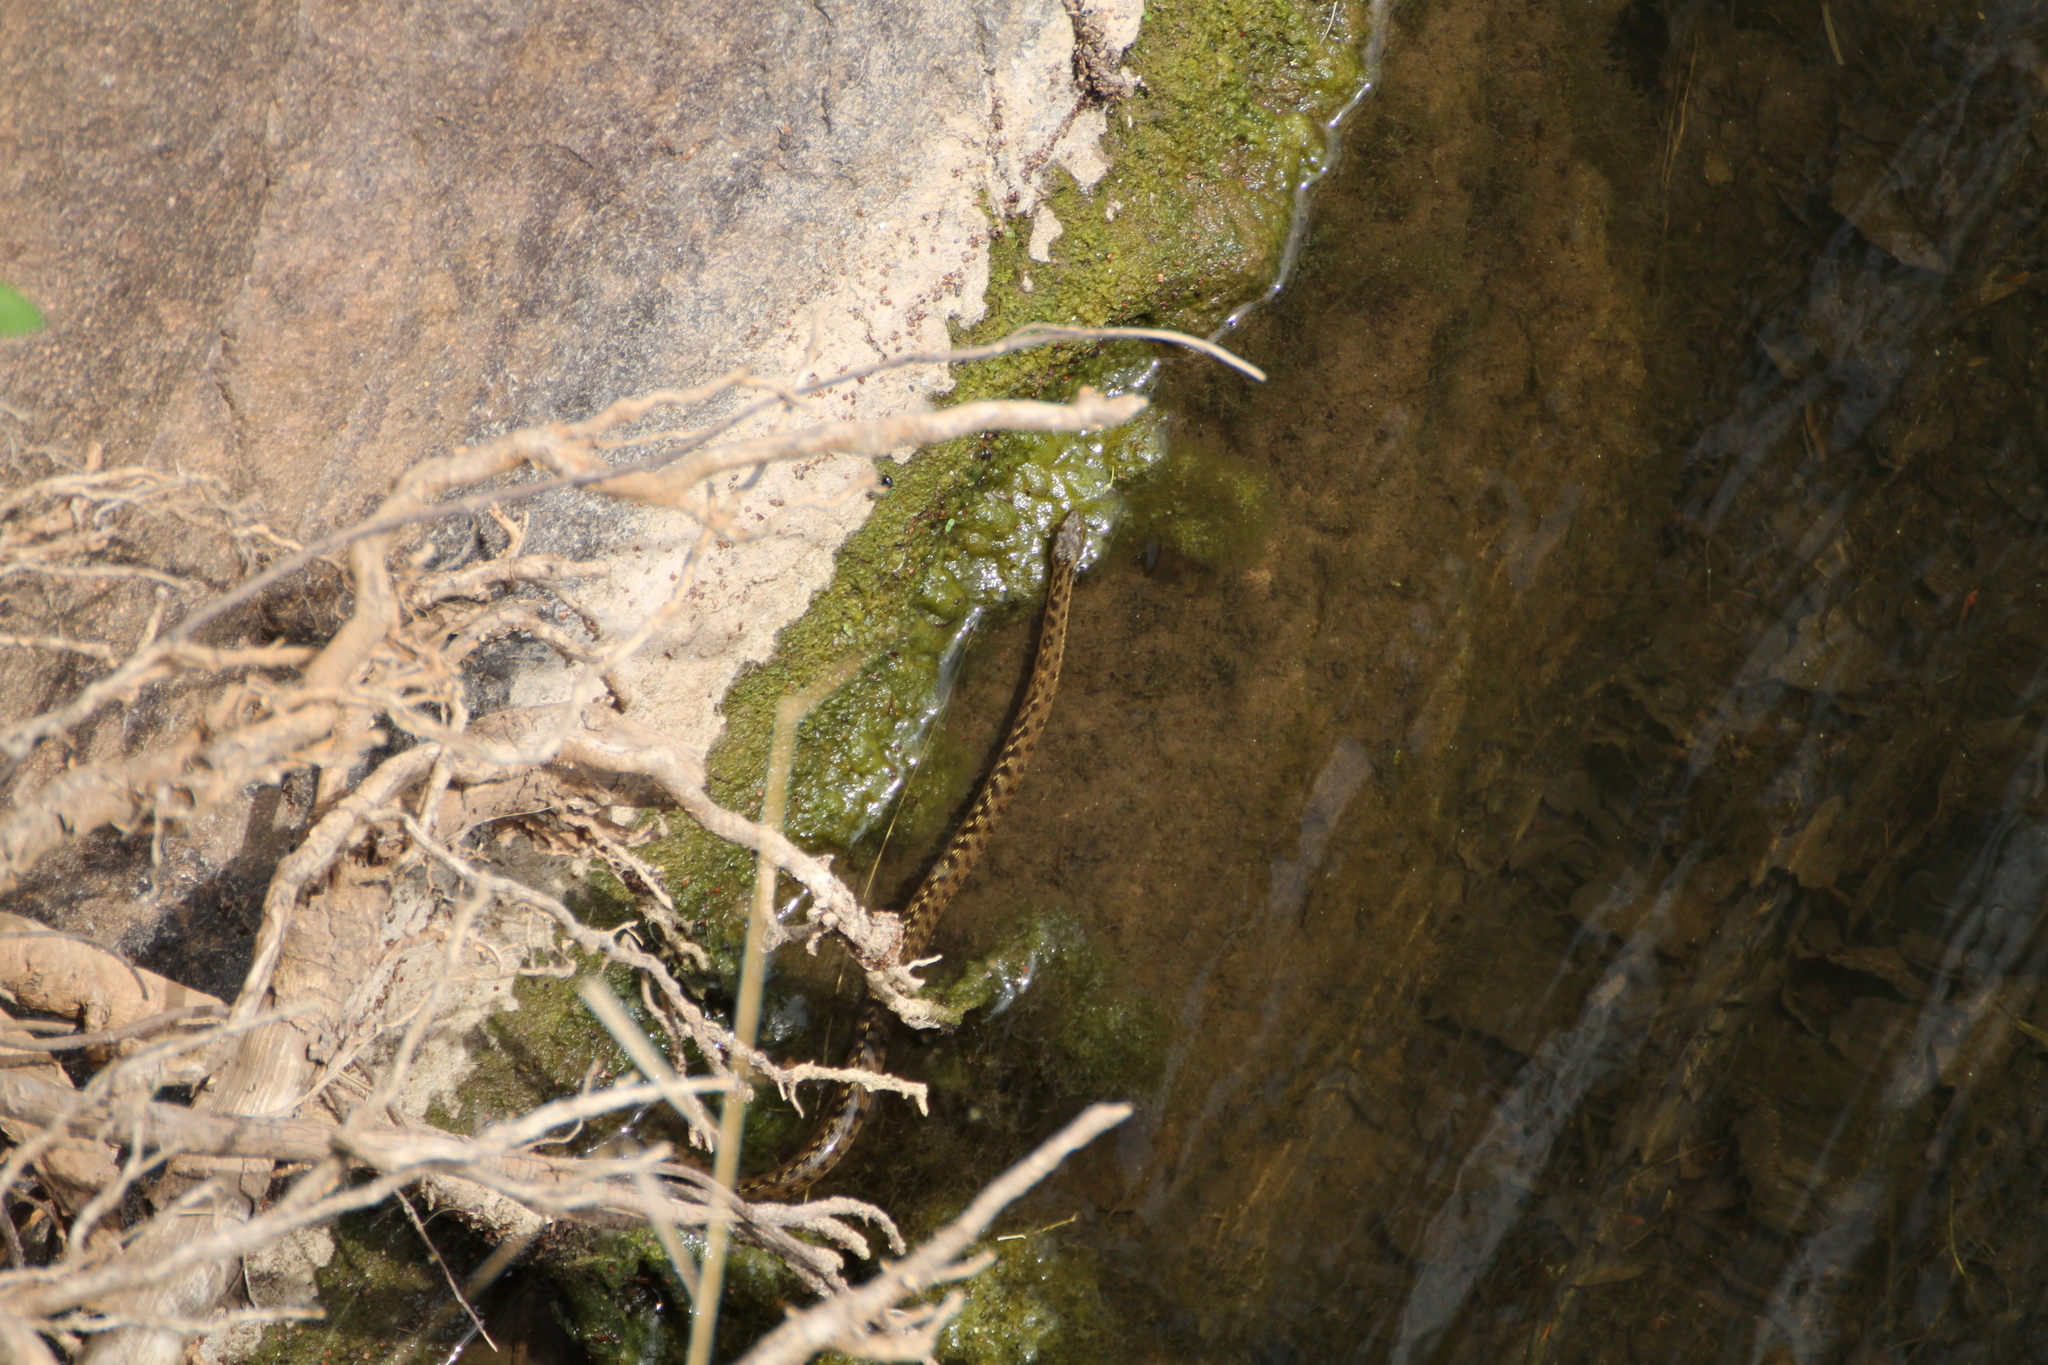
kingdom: Animalia
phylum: Chordata
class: Squamata
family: Colubridae
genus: Natrix
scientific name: Natrix maura
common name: Viperine water snake
